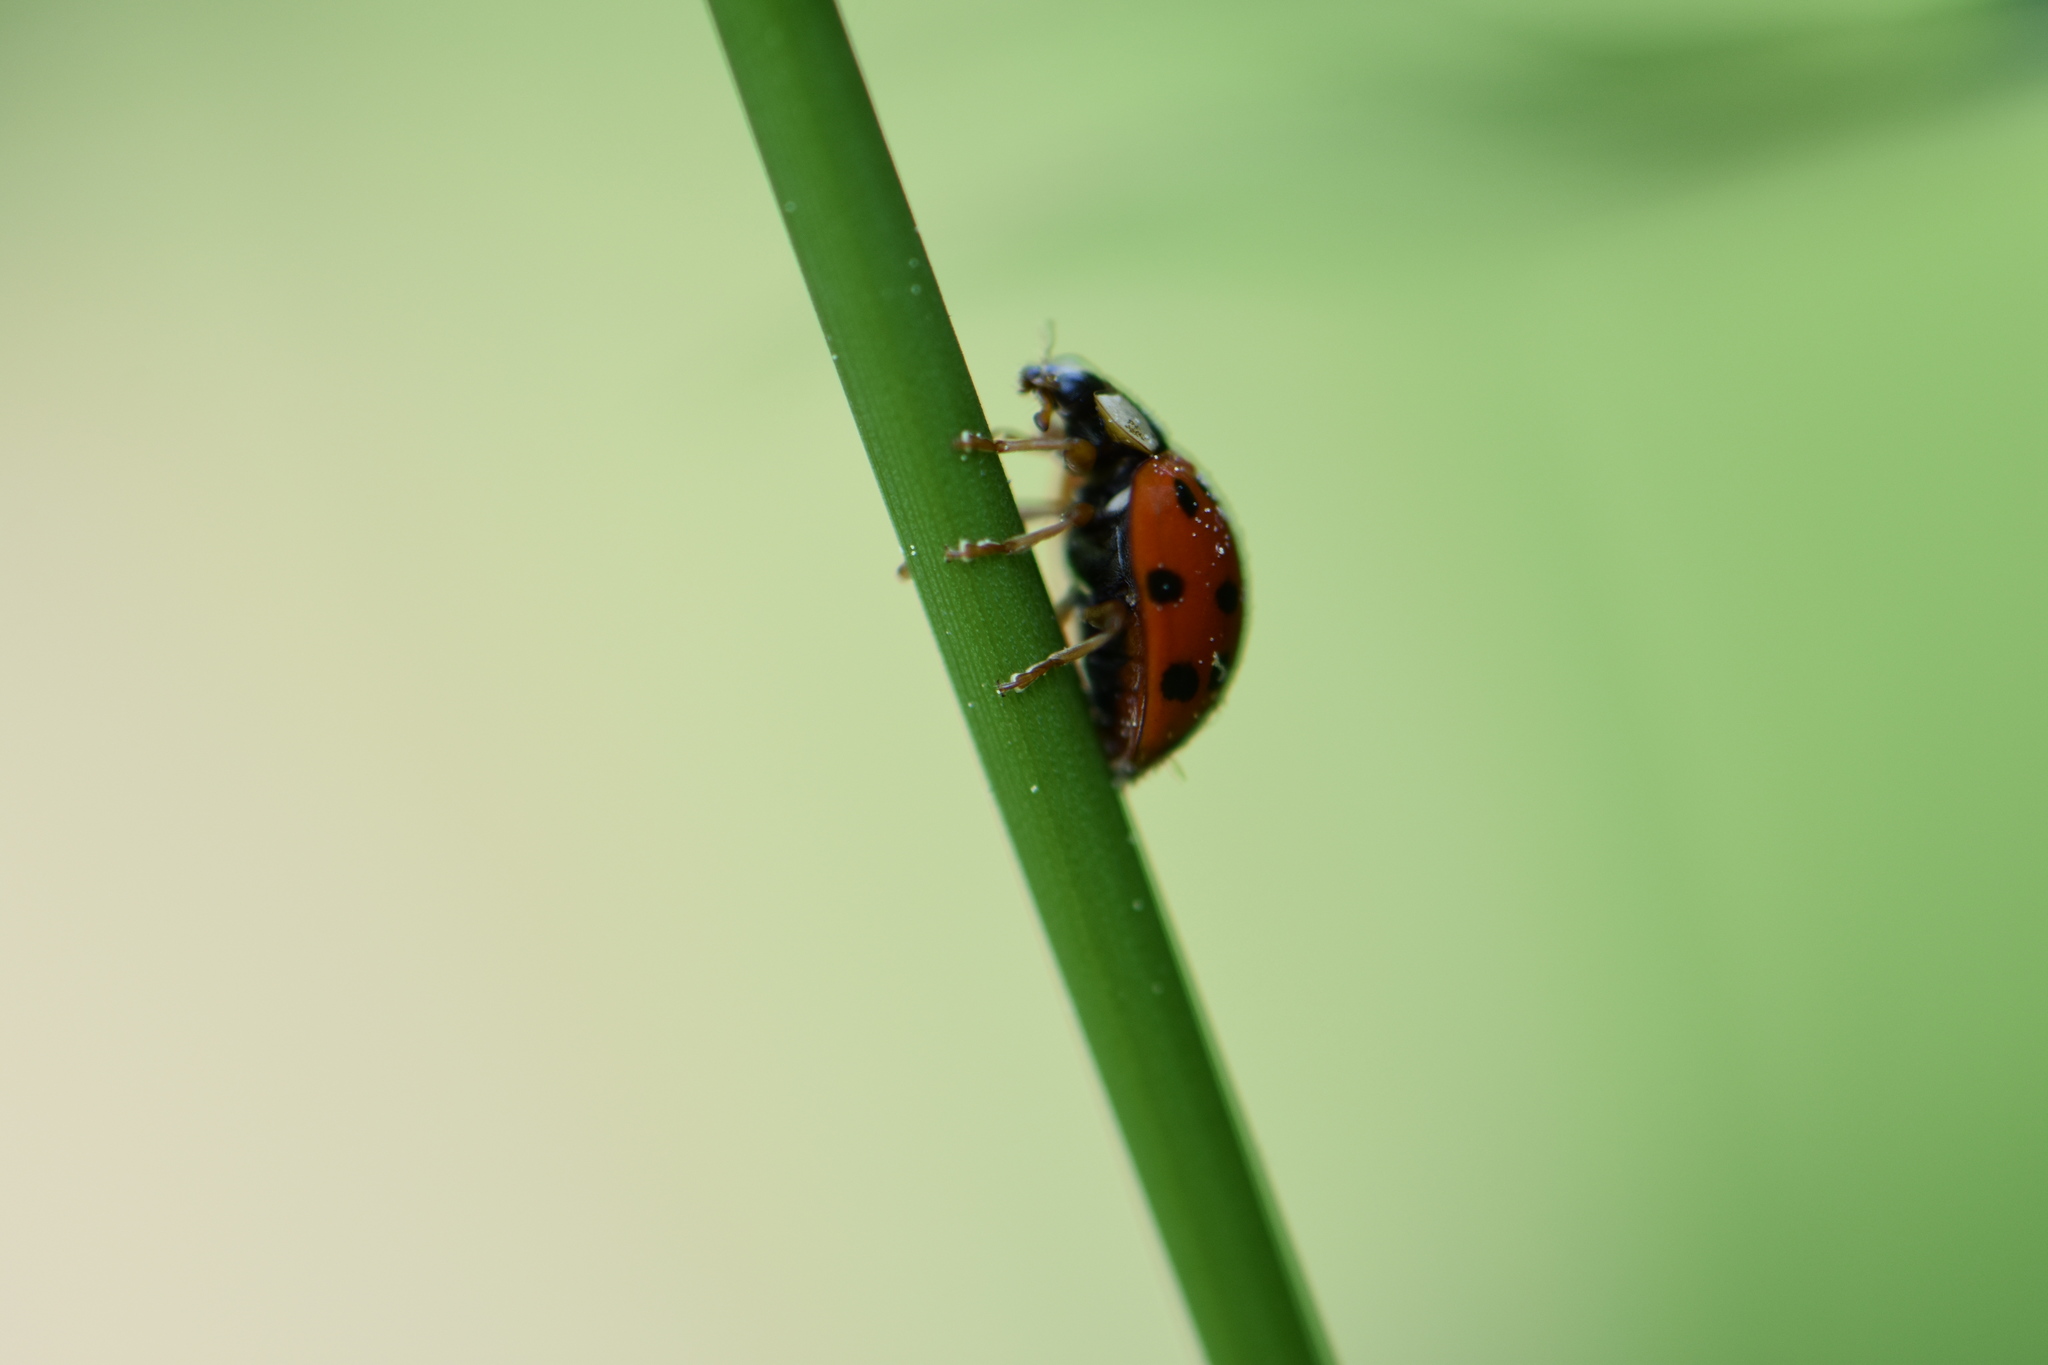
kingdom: Animalia
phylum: Arthropoda
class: Insecta
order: Coleoptera
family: Coccinellidae
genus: Harmonia
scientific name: Harmonia axyridis
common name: Harlequin ladybird
